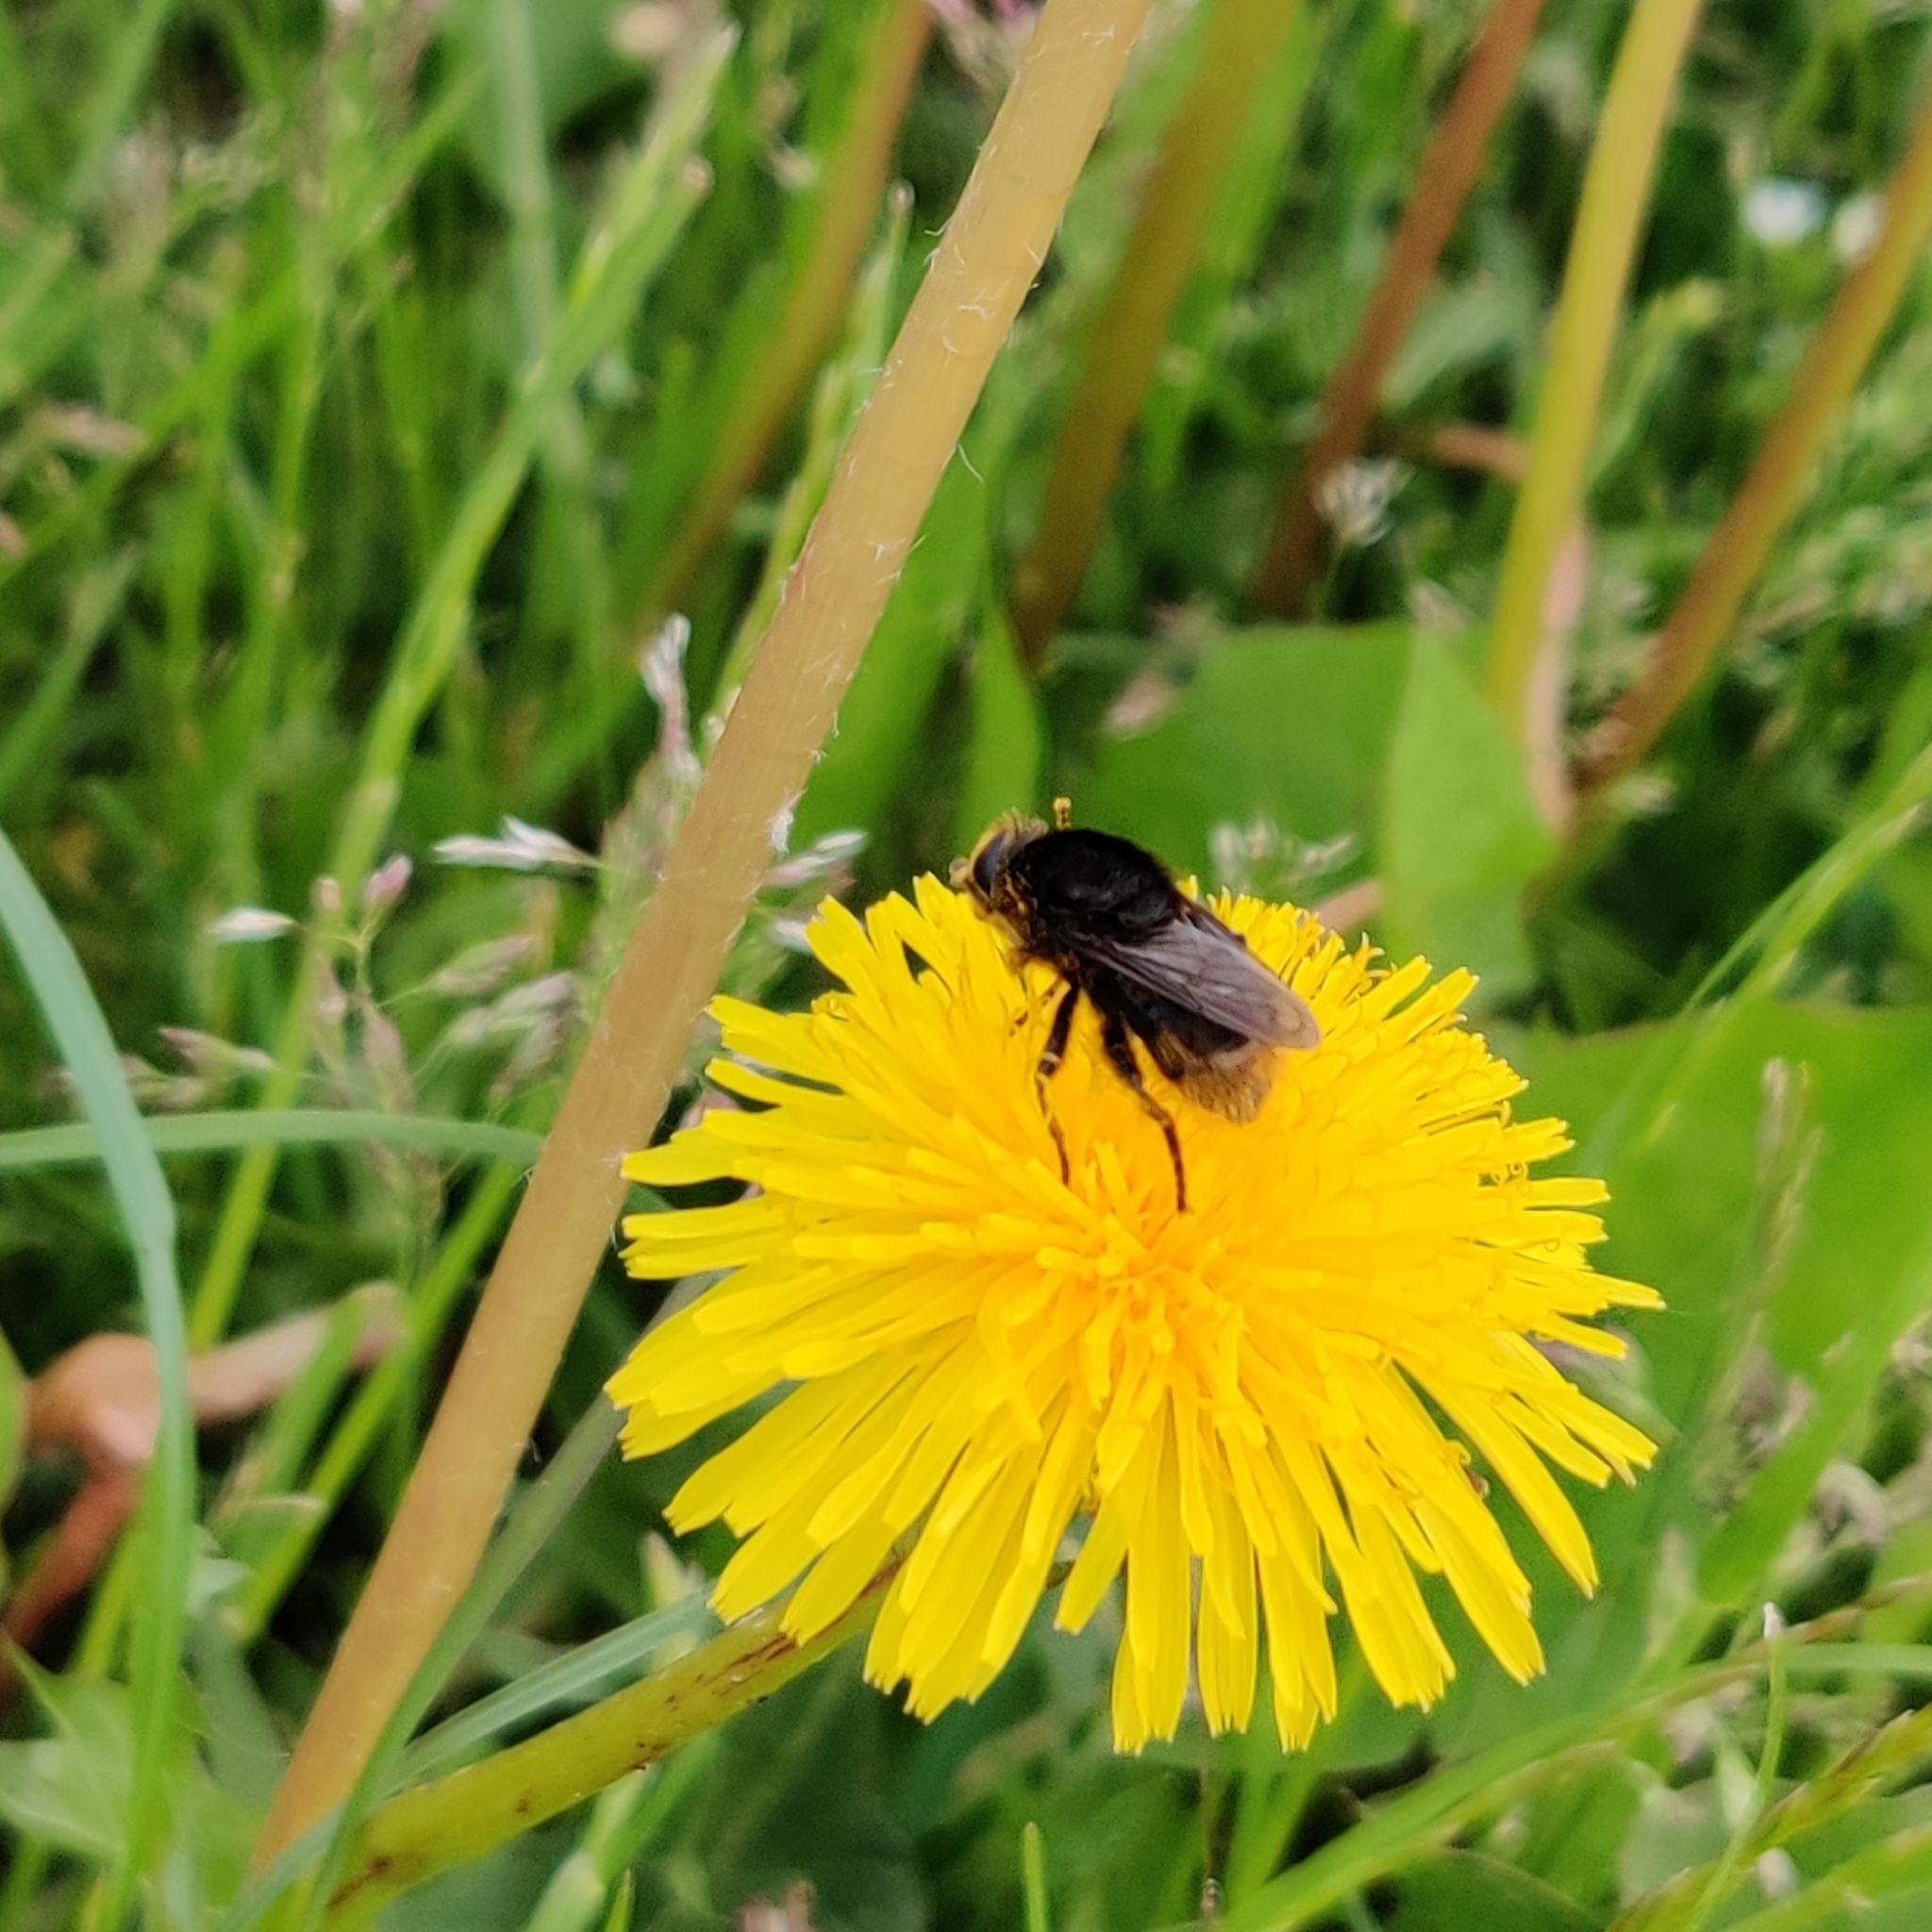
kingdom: Animalia
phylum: Arthropoda
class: Insecta
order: Diptera
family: Syrphidae
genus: Merodon
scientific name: Merodon equestris
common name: Greater bulb-fly
